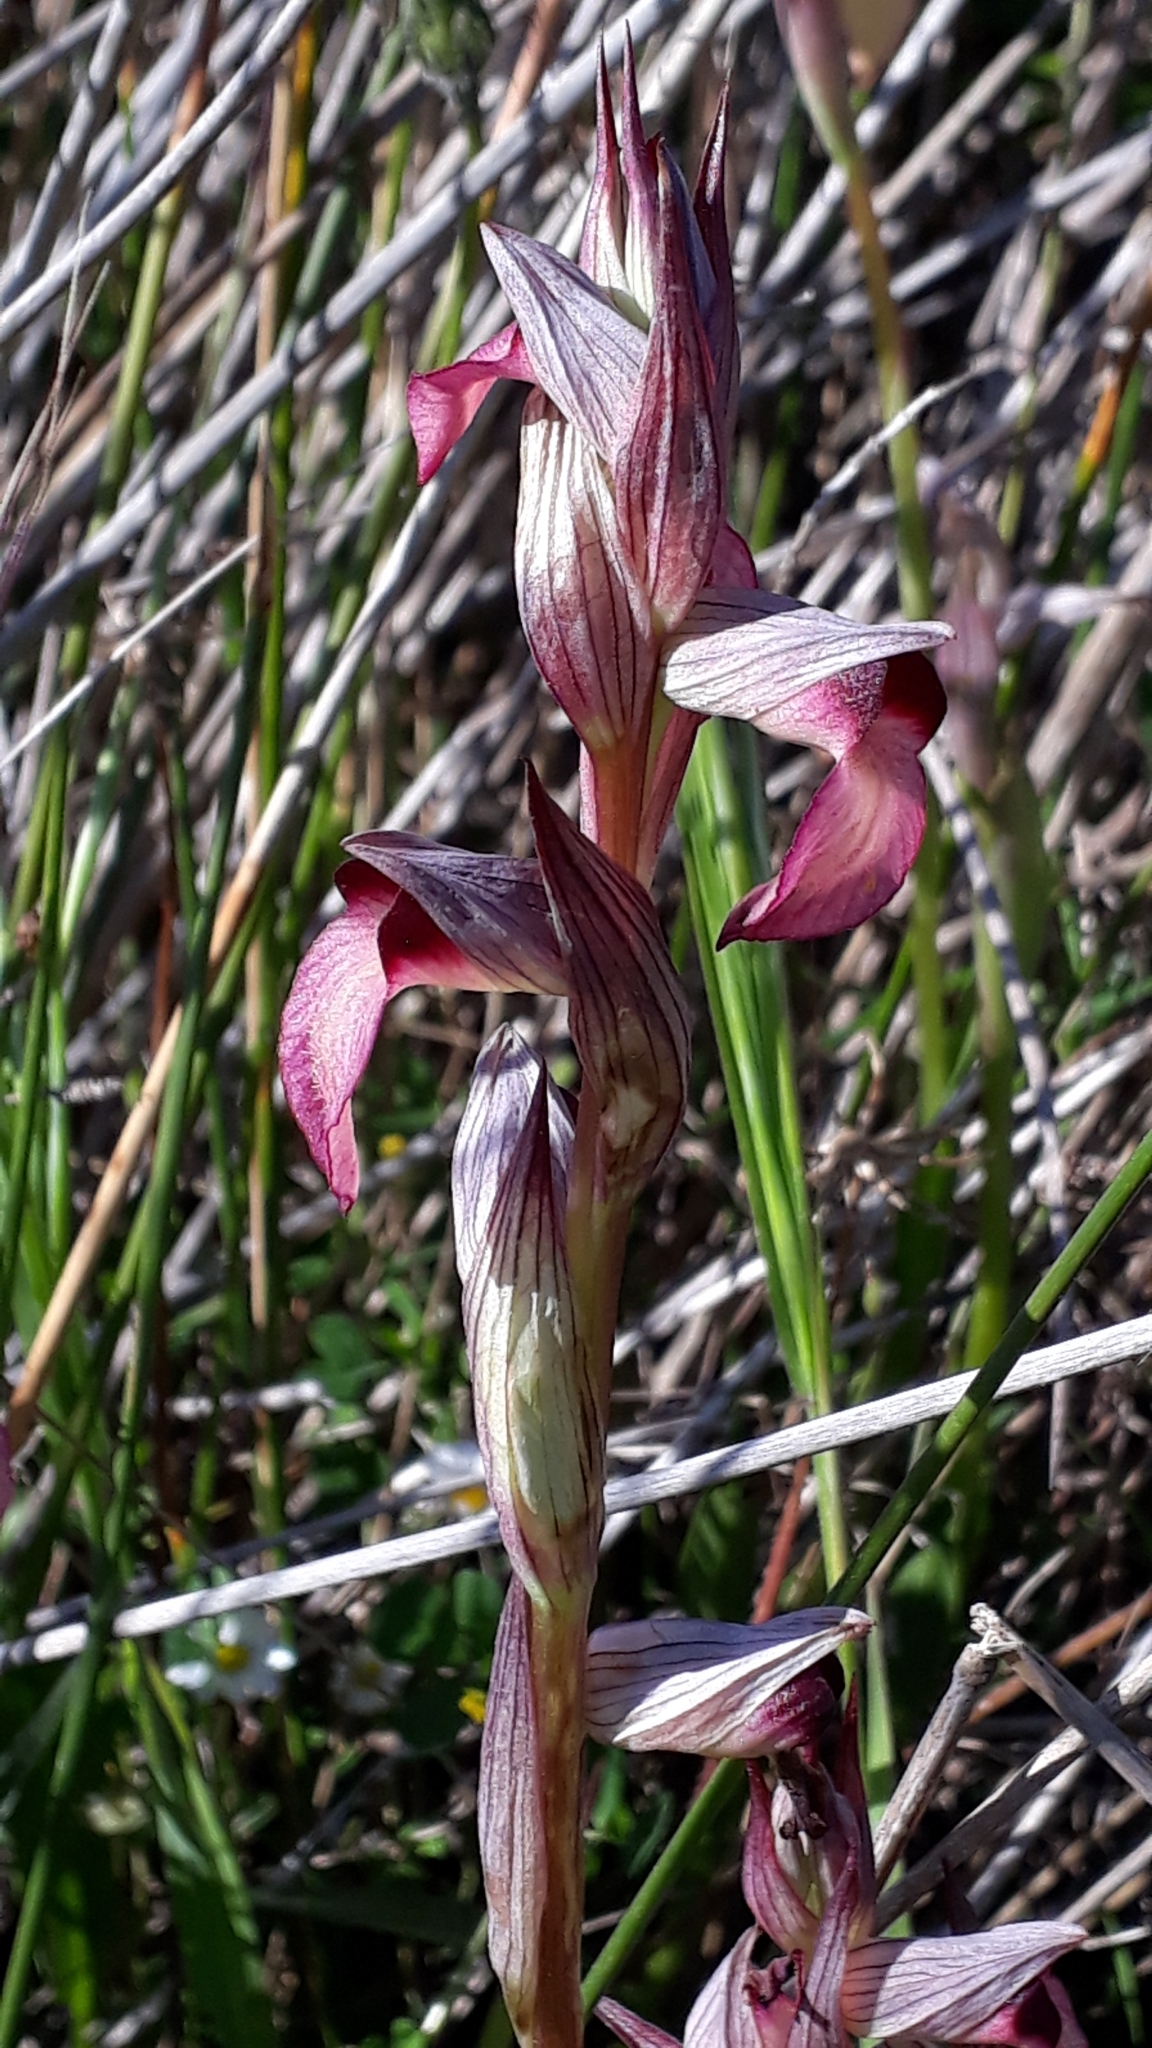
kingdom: Plantae
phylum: Tracheophyta
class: Liliopsida
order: Asparagales
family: Orchidaceae
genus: Serapias
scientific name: Serapias lingua
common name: Tongue-orchid
